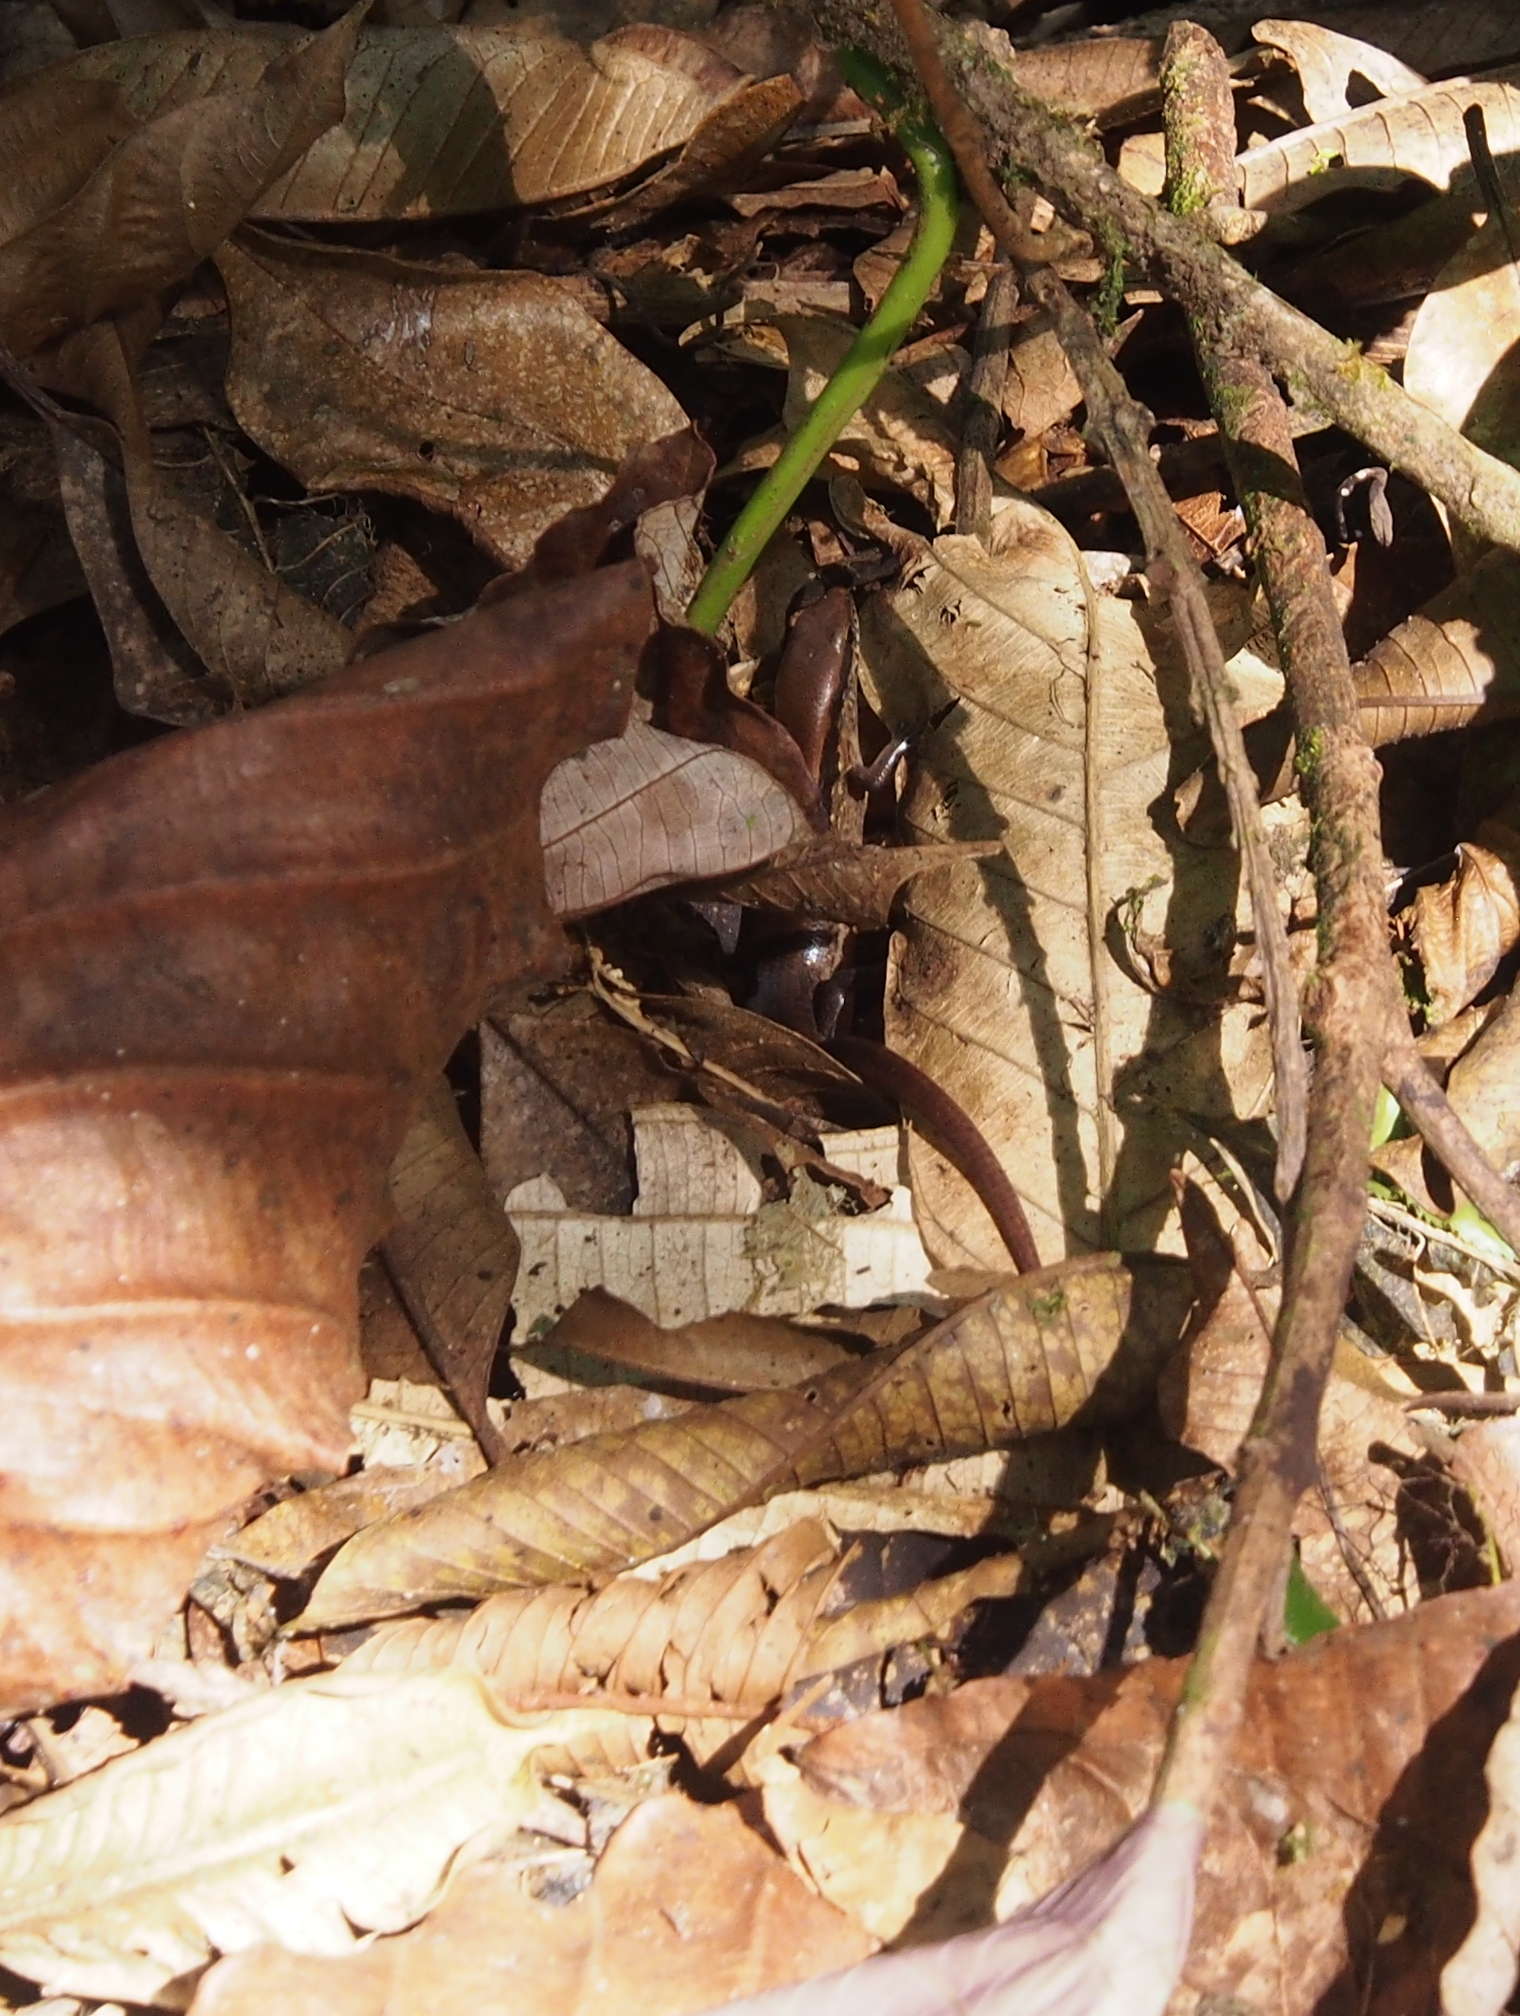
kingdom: Animalia
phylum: Chordata
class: Squamata
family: Scincidae
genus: Scincella
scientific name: Scincella cherriei
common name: Brown forest skink
